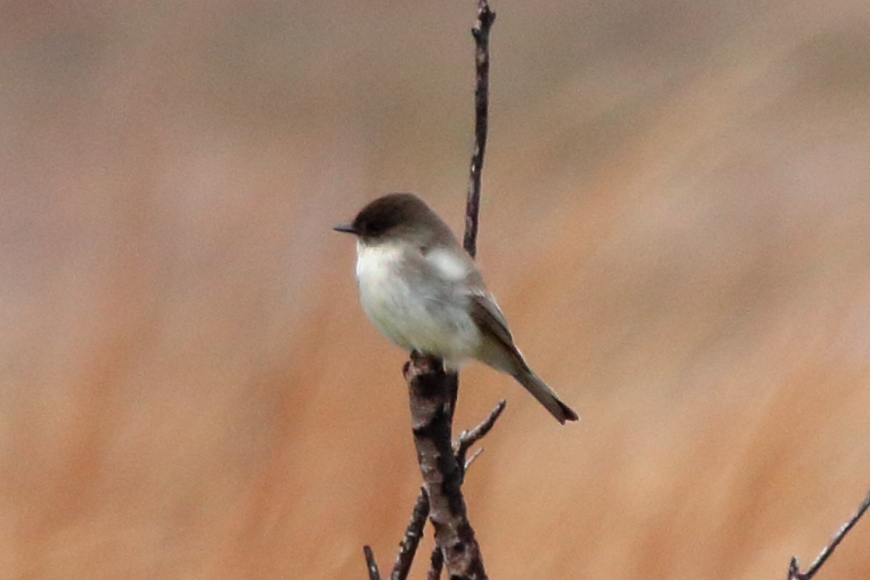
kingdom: Animalia
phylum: Chordata
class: Aves
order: Passeriformes
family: Tyrannidae
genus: Sayornis
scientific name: Sayornis phoebe
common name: Eastern phoebe
